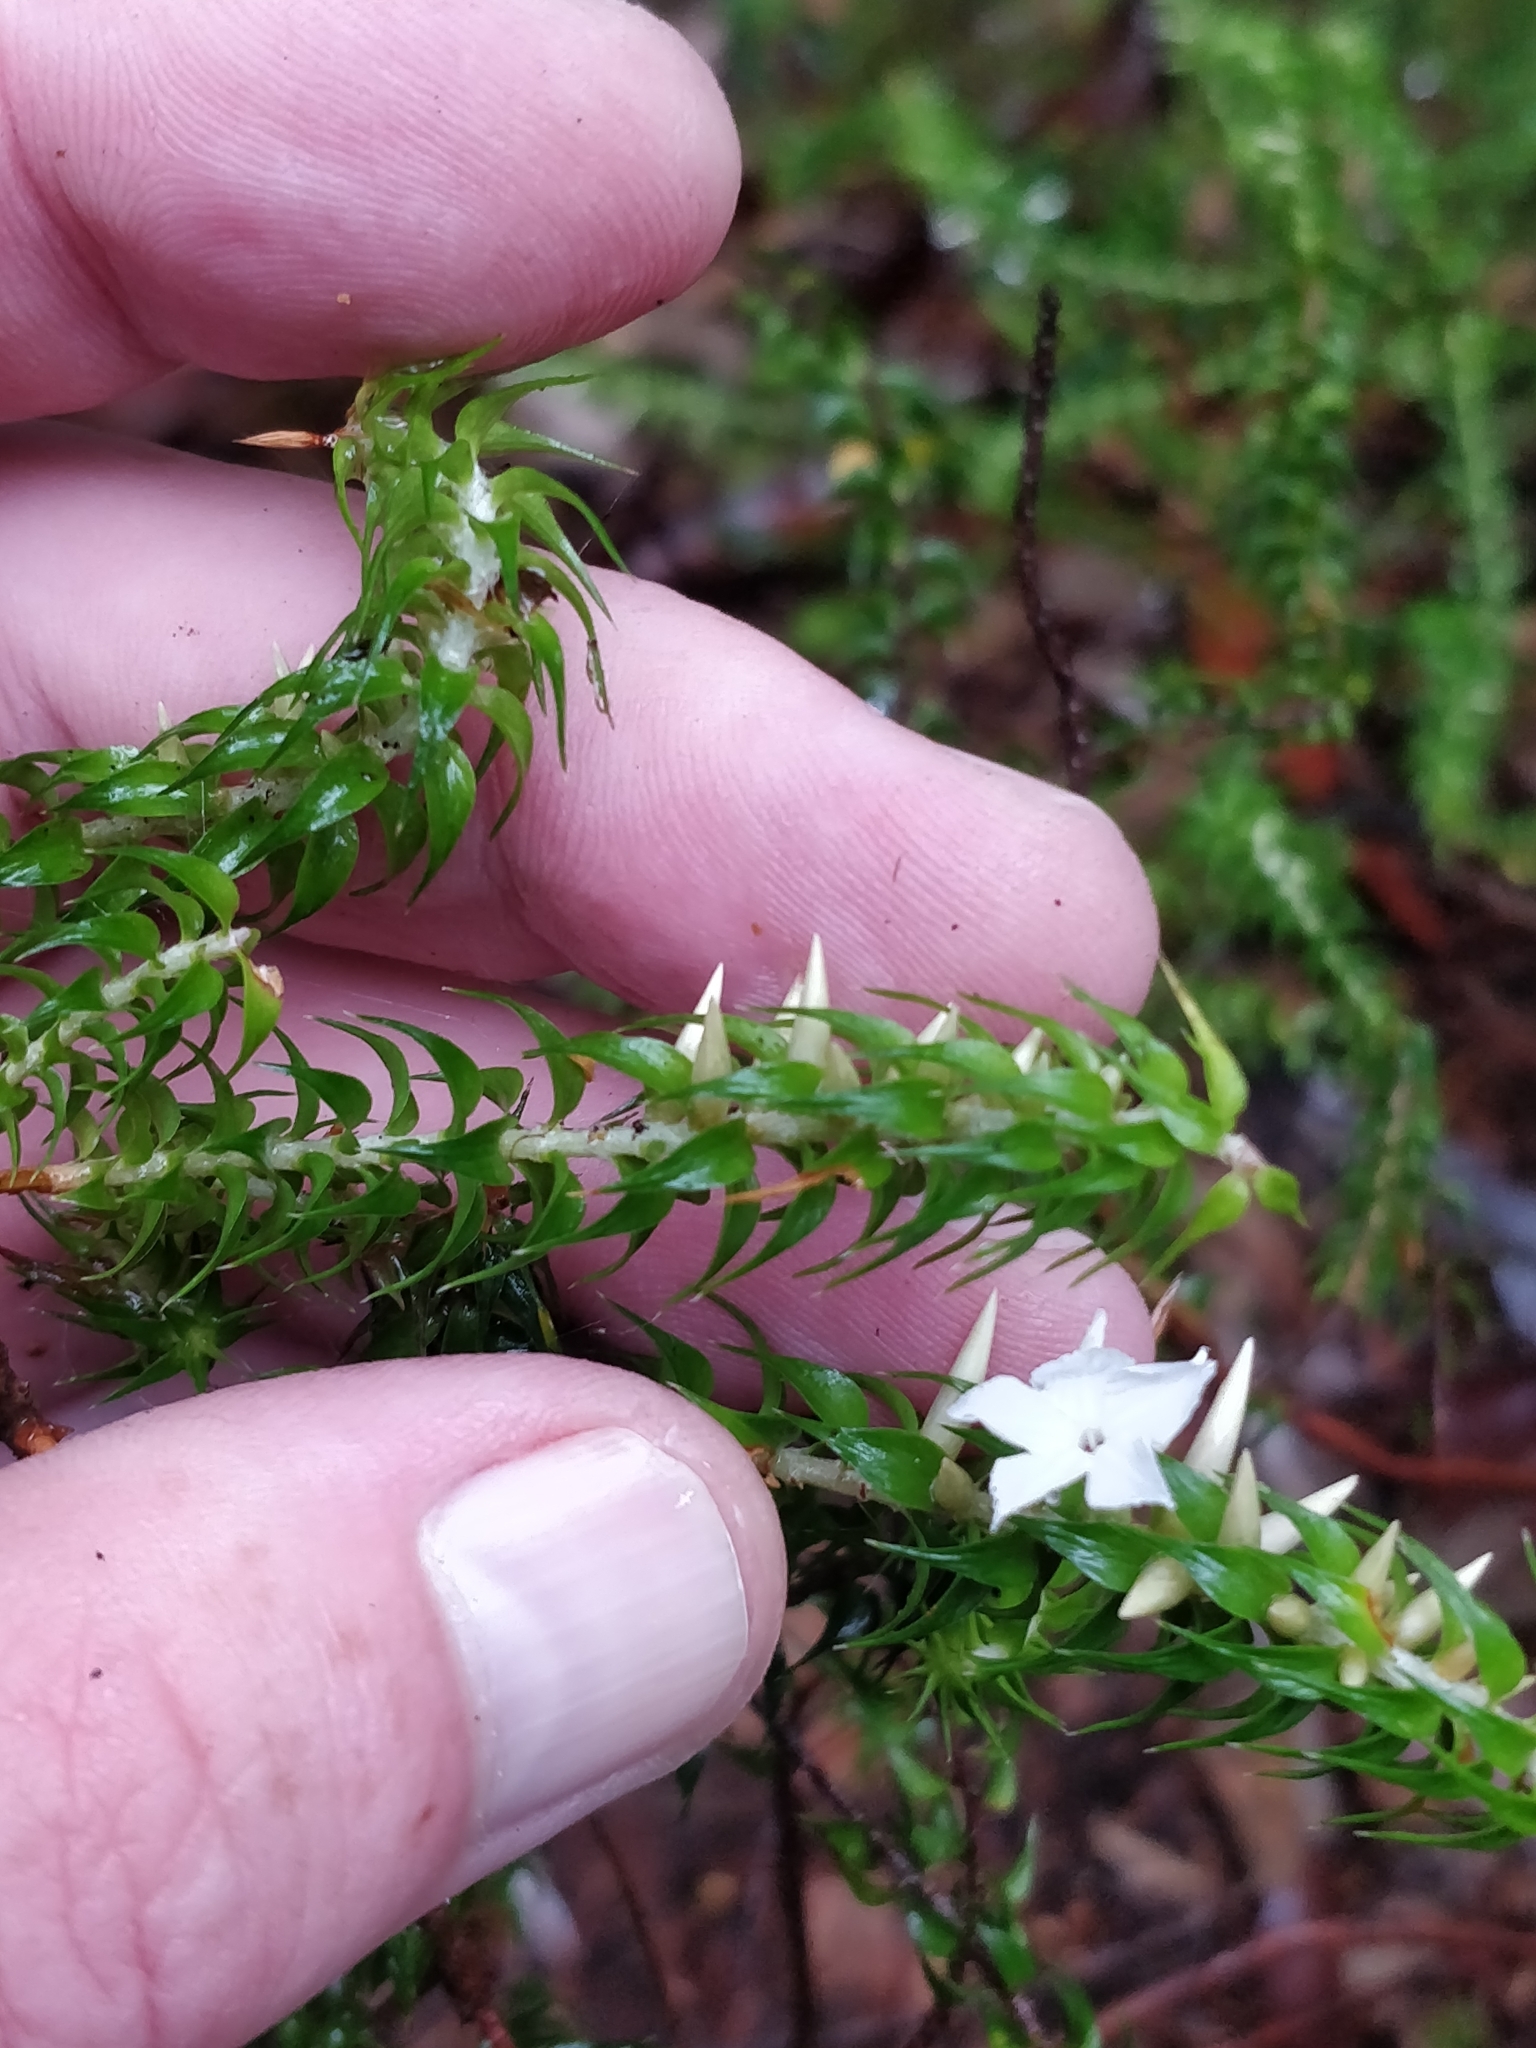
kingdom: Plantae
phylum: Tracheophyta
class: Magnoliopsida
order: Ericales
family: Ericaceae
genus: Woollsia
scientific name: Woollsia pungens
